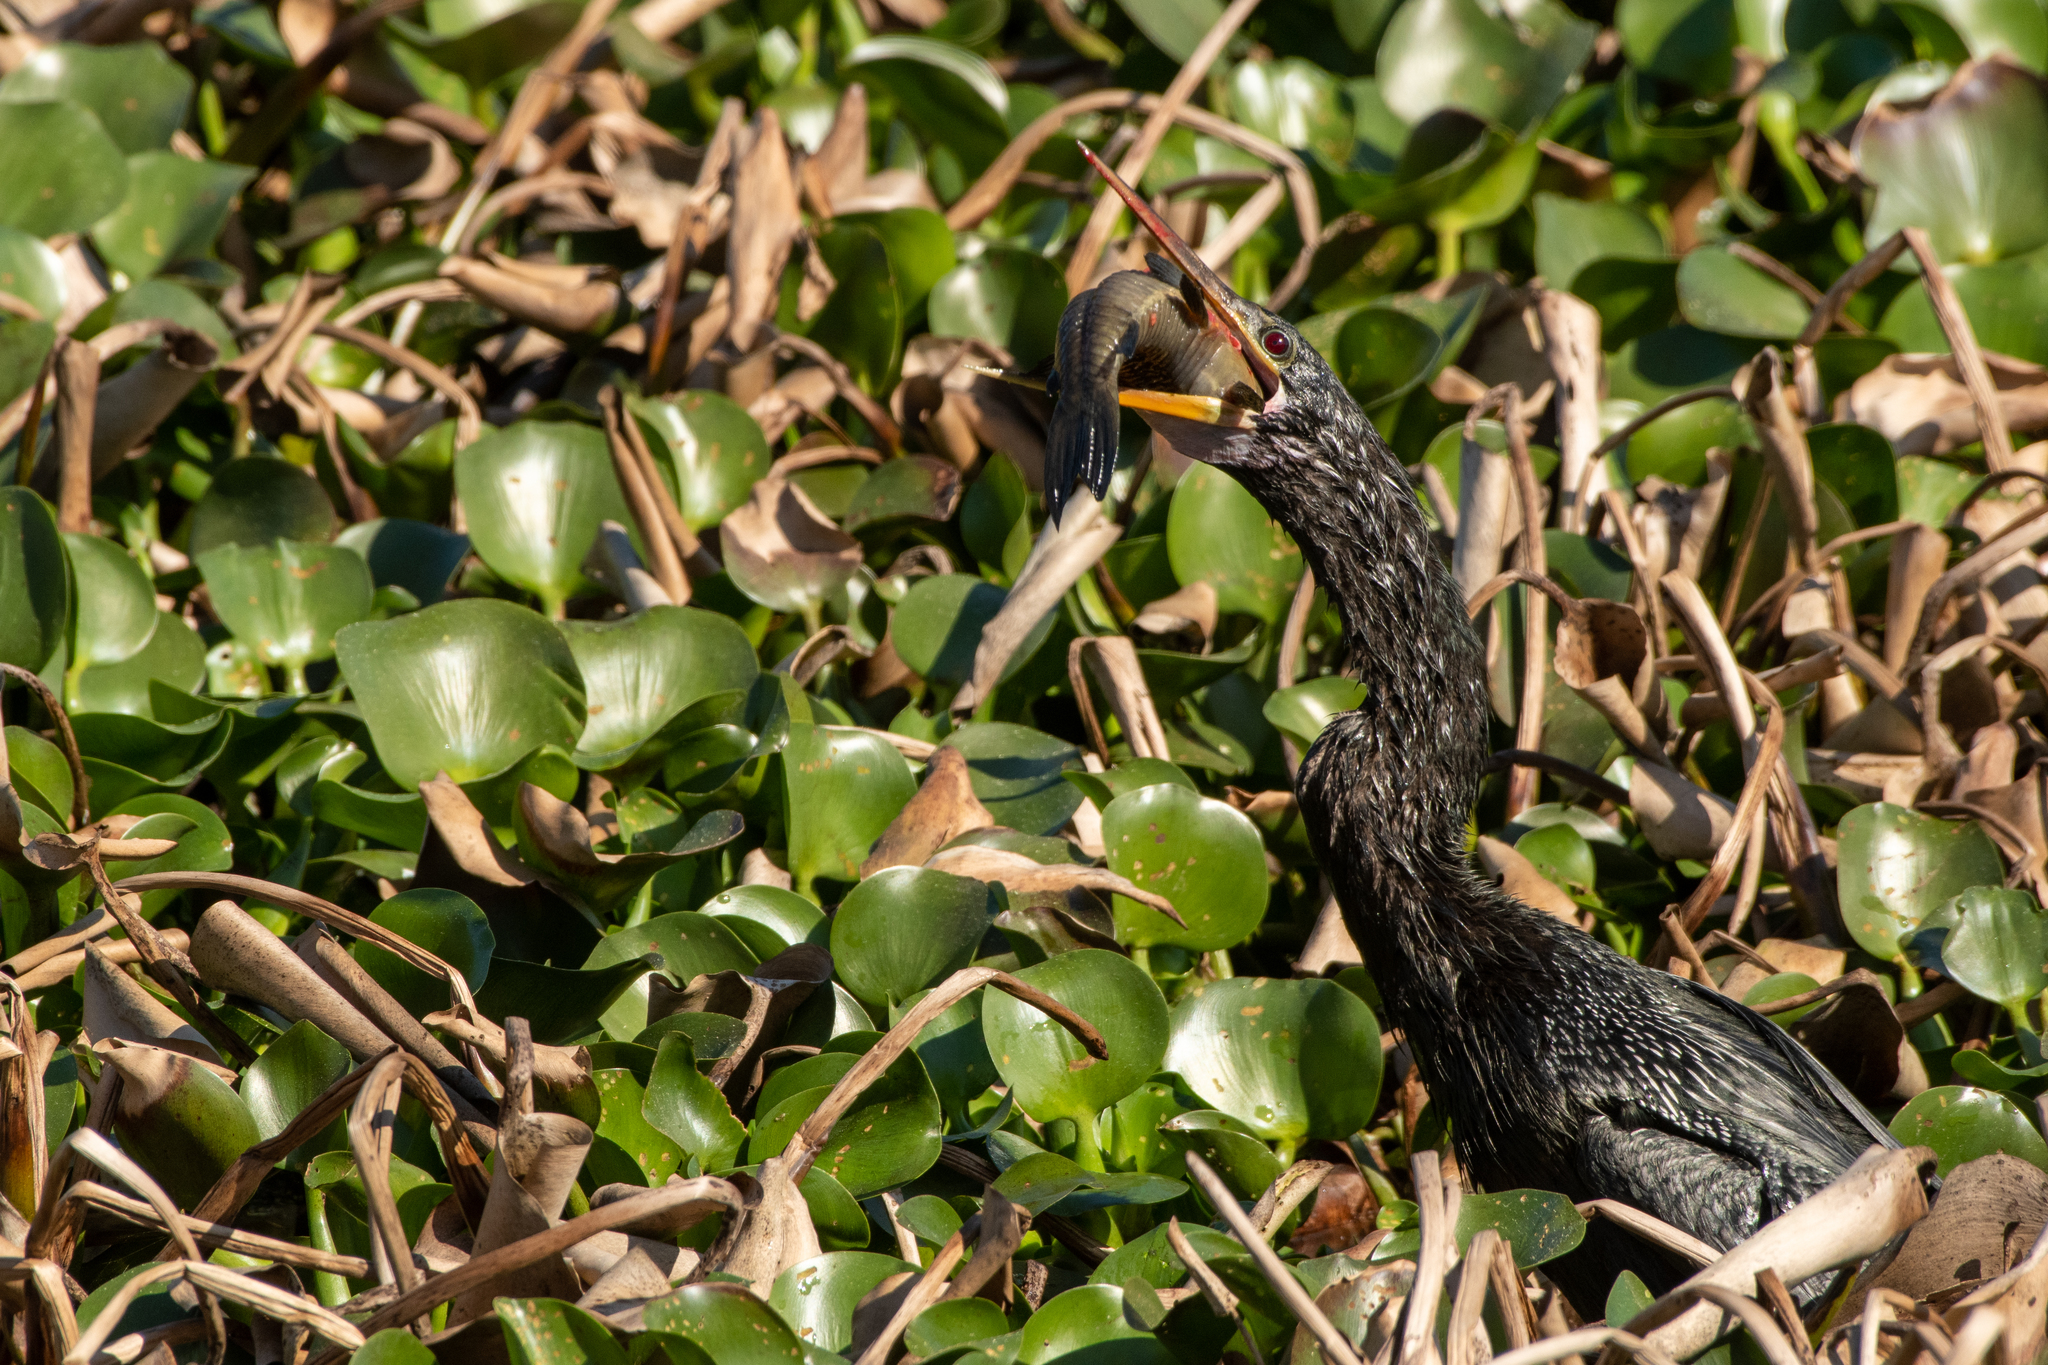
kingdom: Animalia
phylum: Chordata
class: Aves
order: Suliformes
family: Anhingidae
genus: Anhinga
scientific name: Anhinga anhinga
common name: Anhinga
